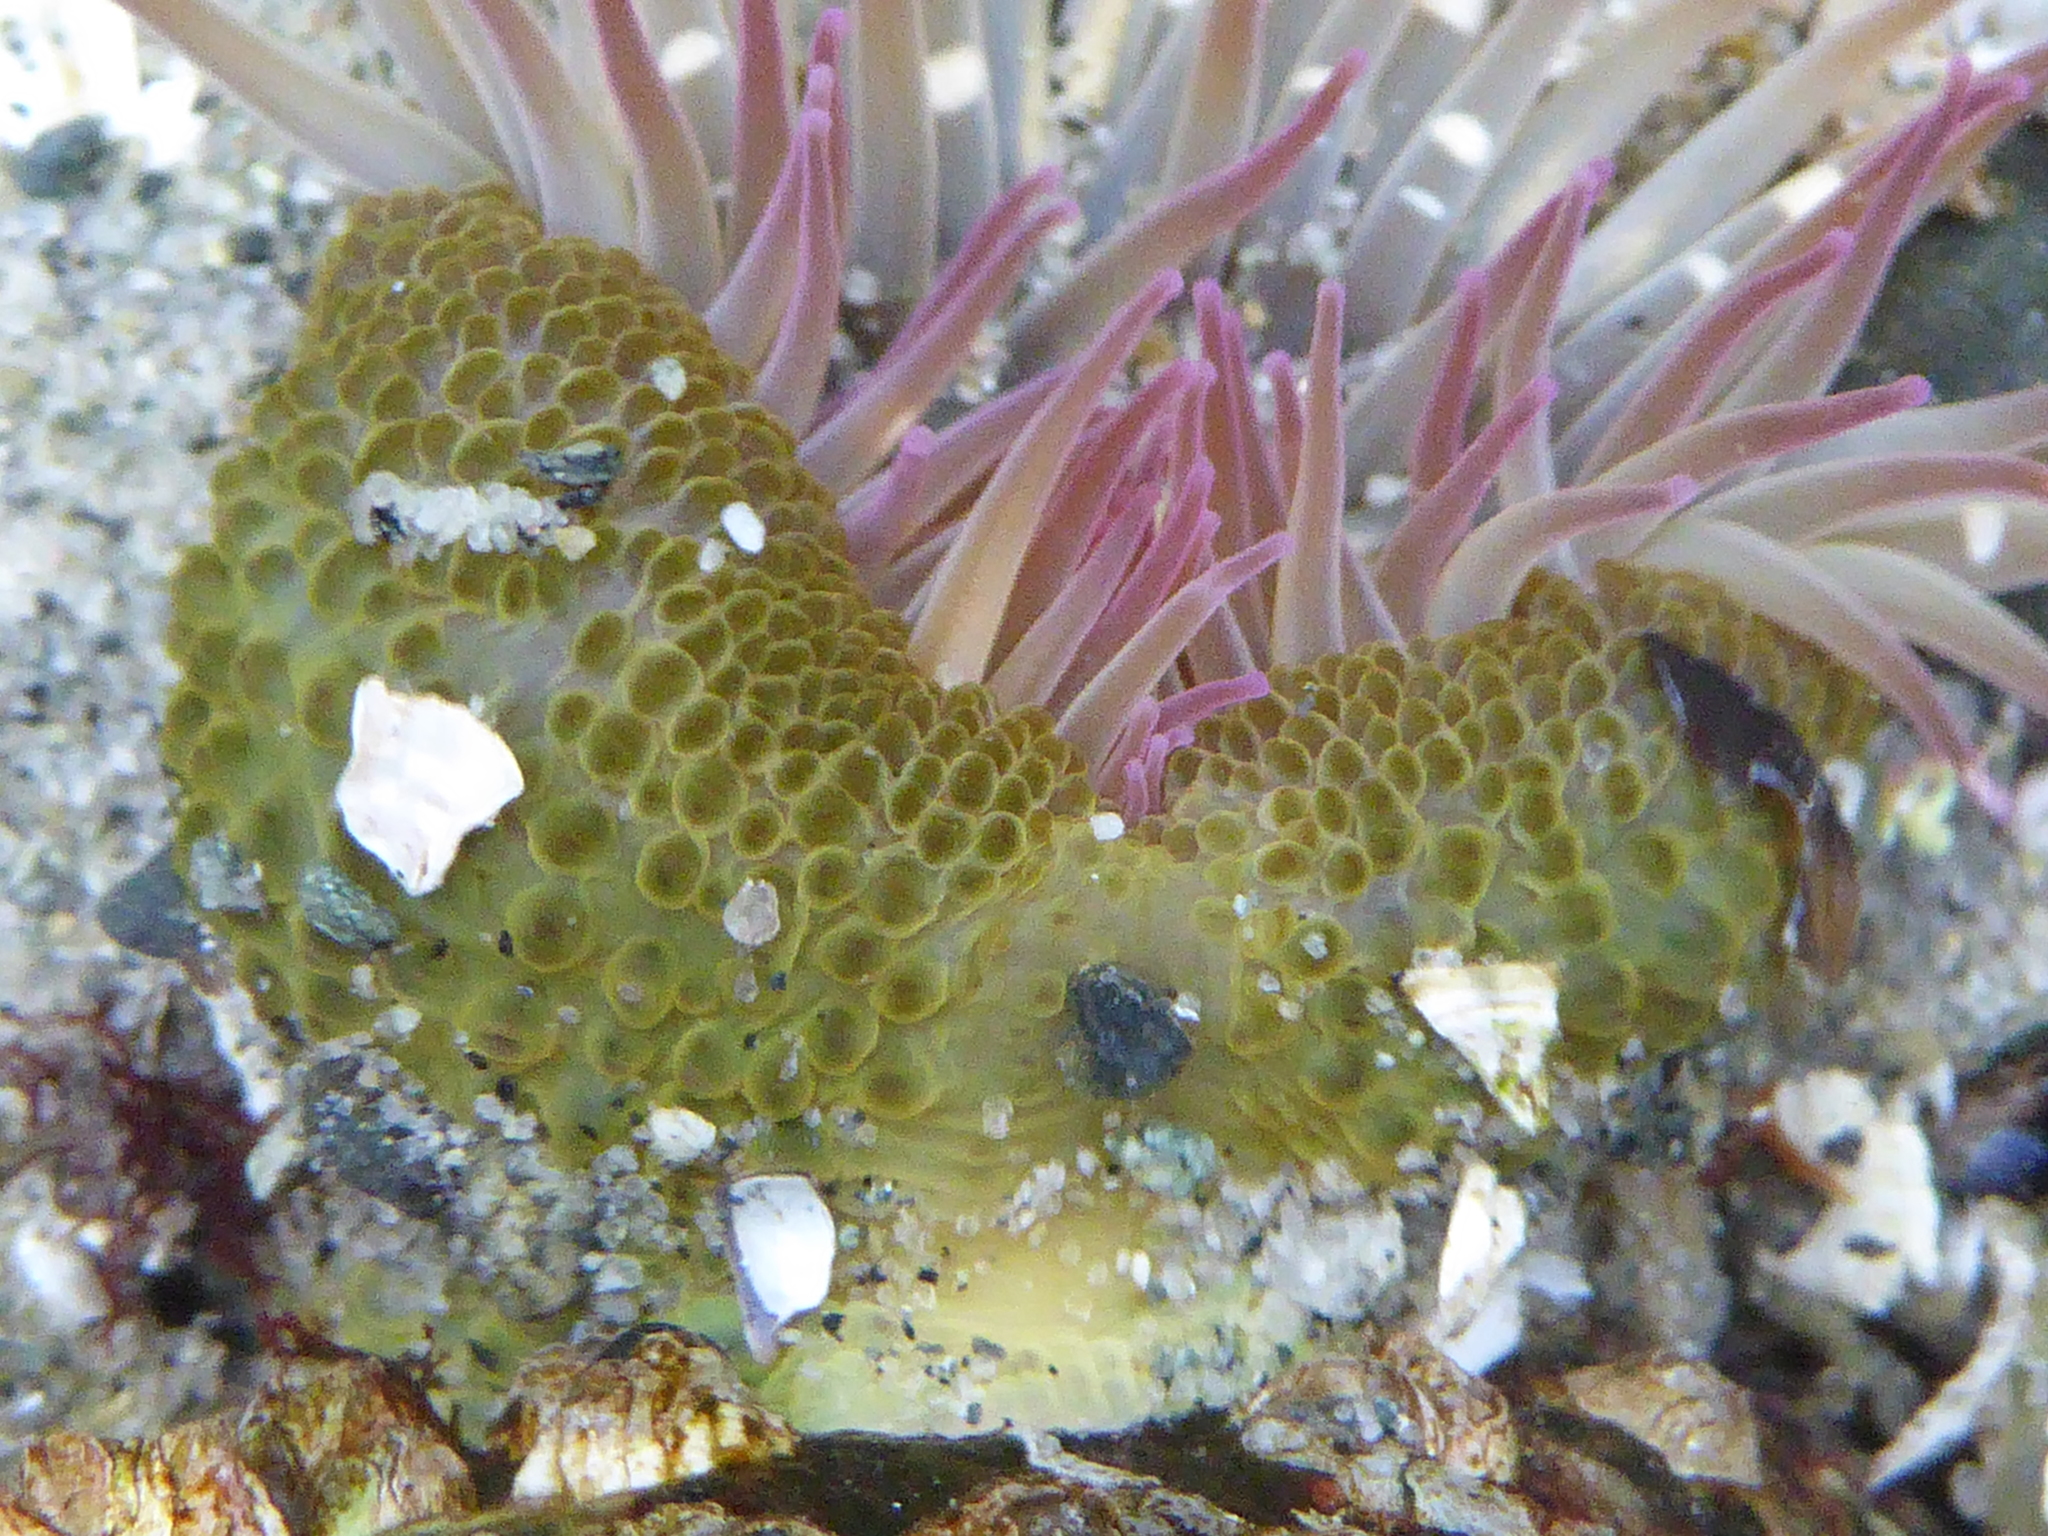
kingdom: Animalia
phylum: Cnidaria
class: Anthozoa
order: Actiniaria
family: Actiniidae
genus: Anthopleura
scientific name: Anthopleura elegantissima
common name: Clonal anemone
